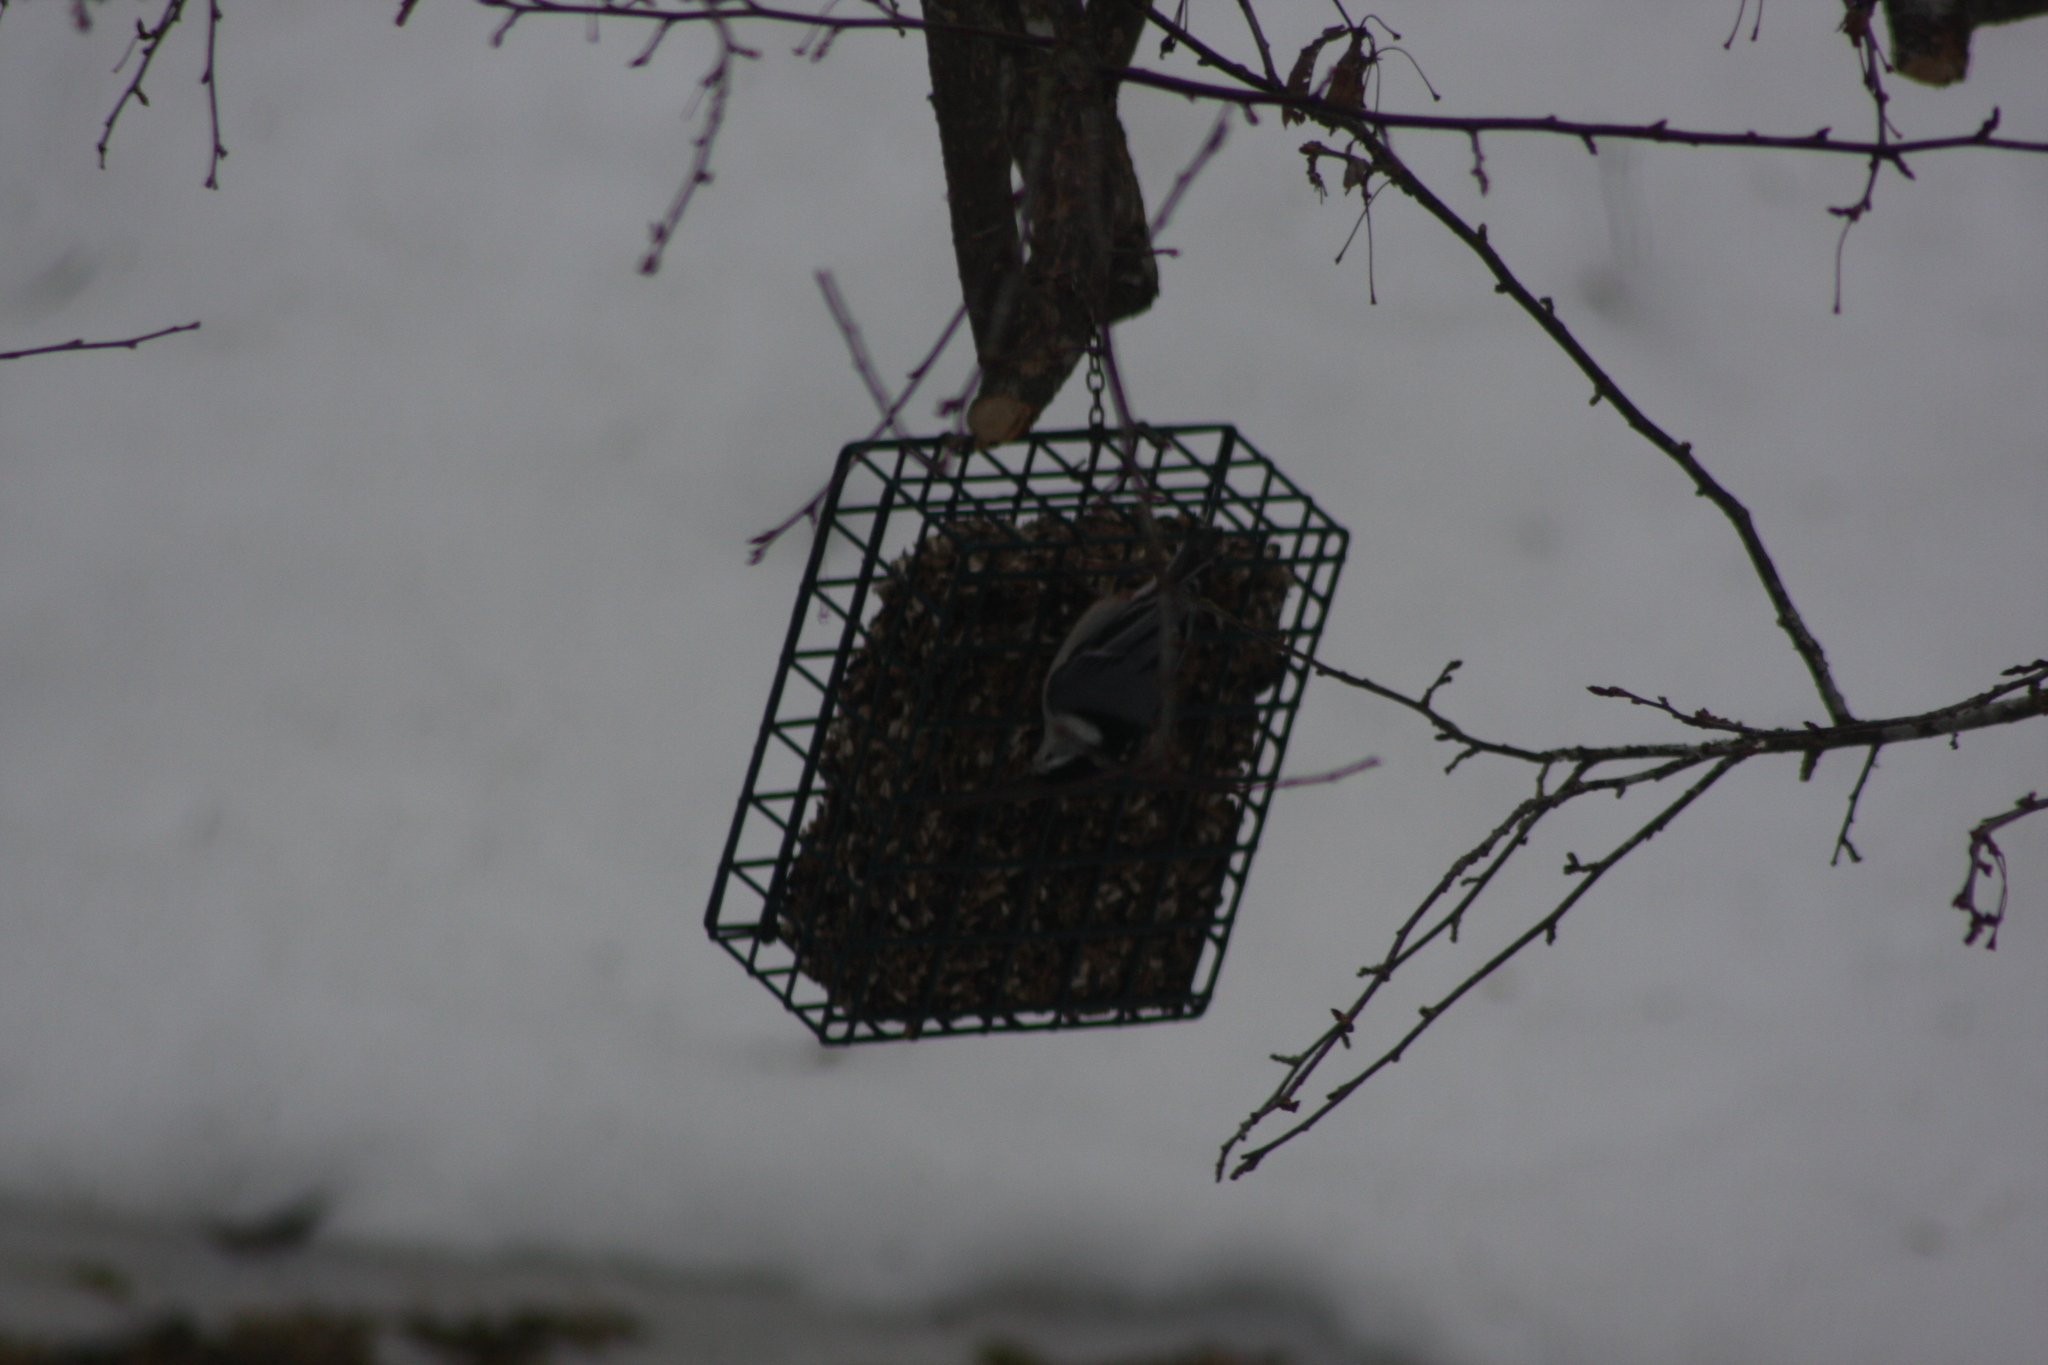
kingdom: Animalia
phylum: Chordata
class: Aves
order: Passeriformes
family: Sittidae
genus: Sitta
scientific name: Sitta carolinensis
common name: White-breasted nuthatch
